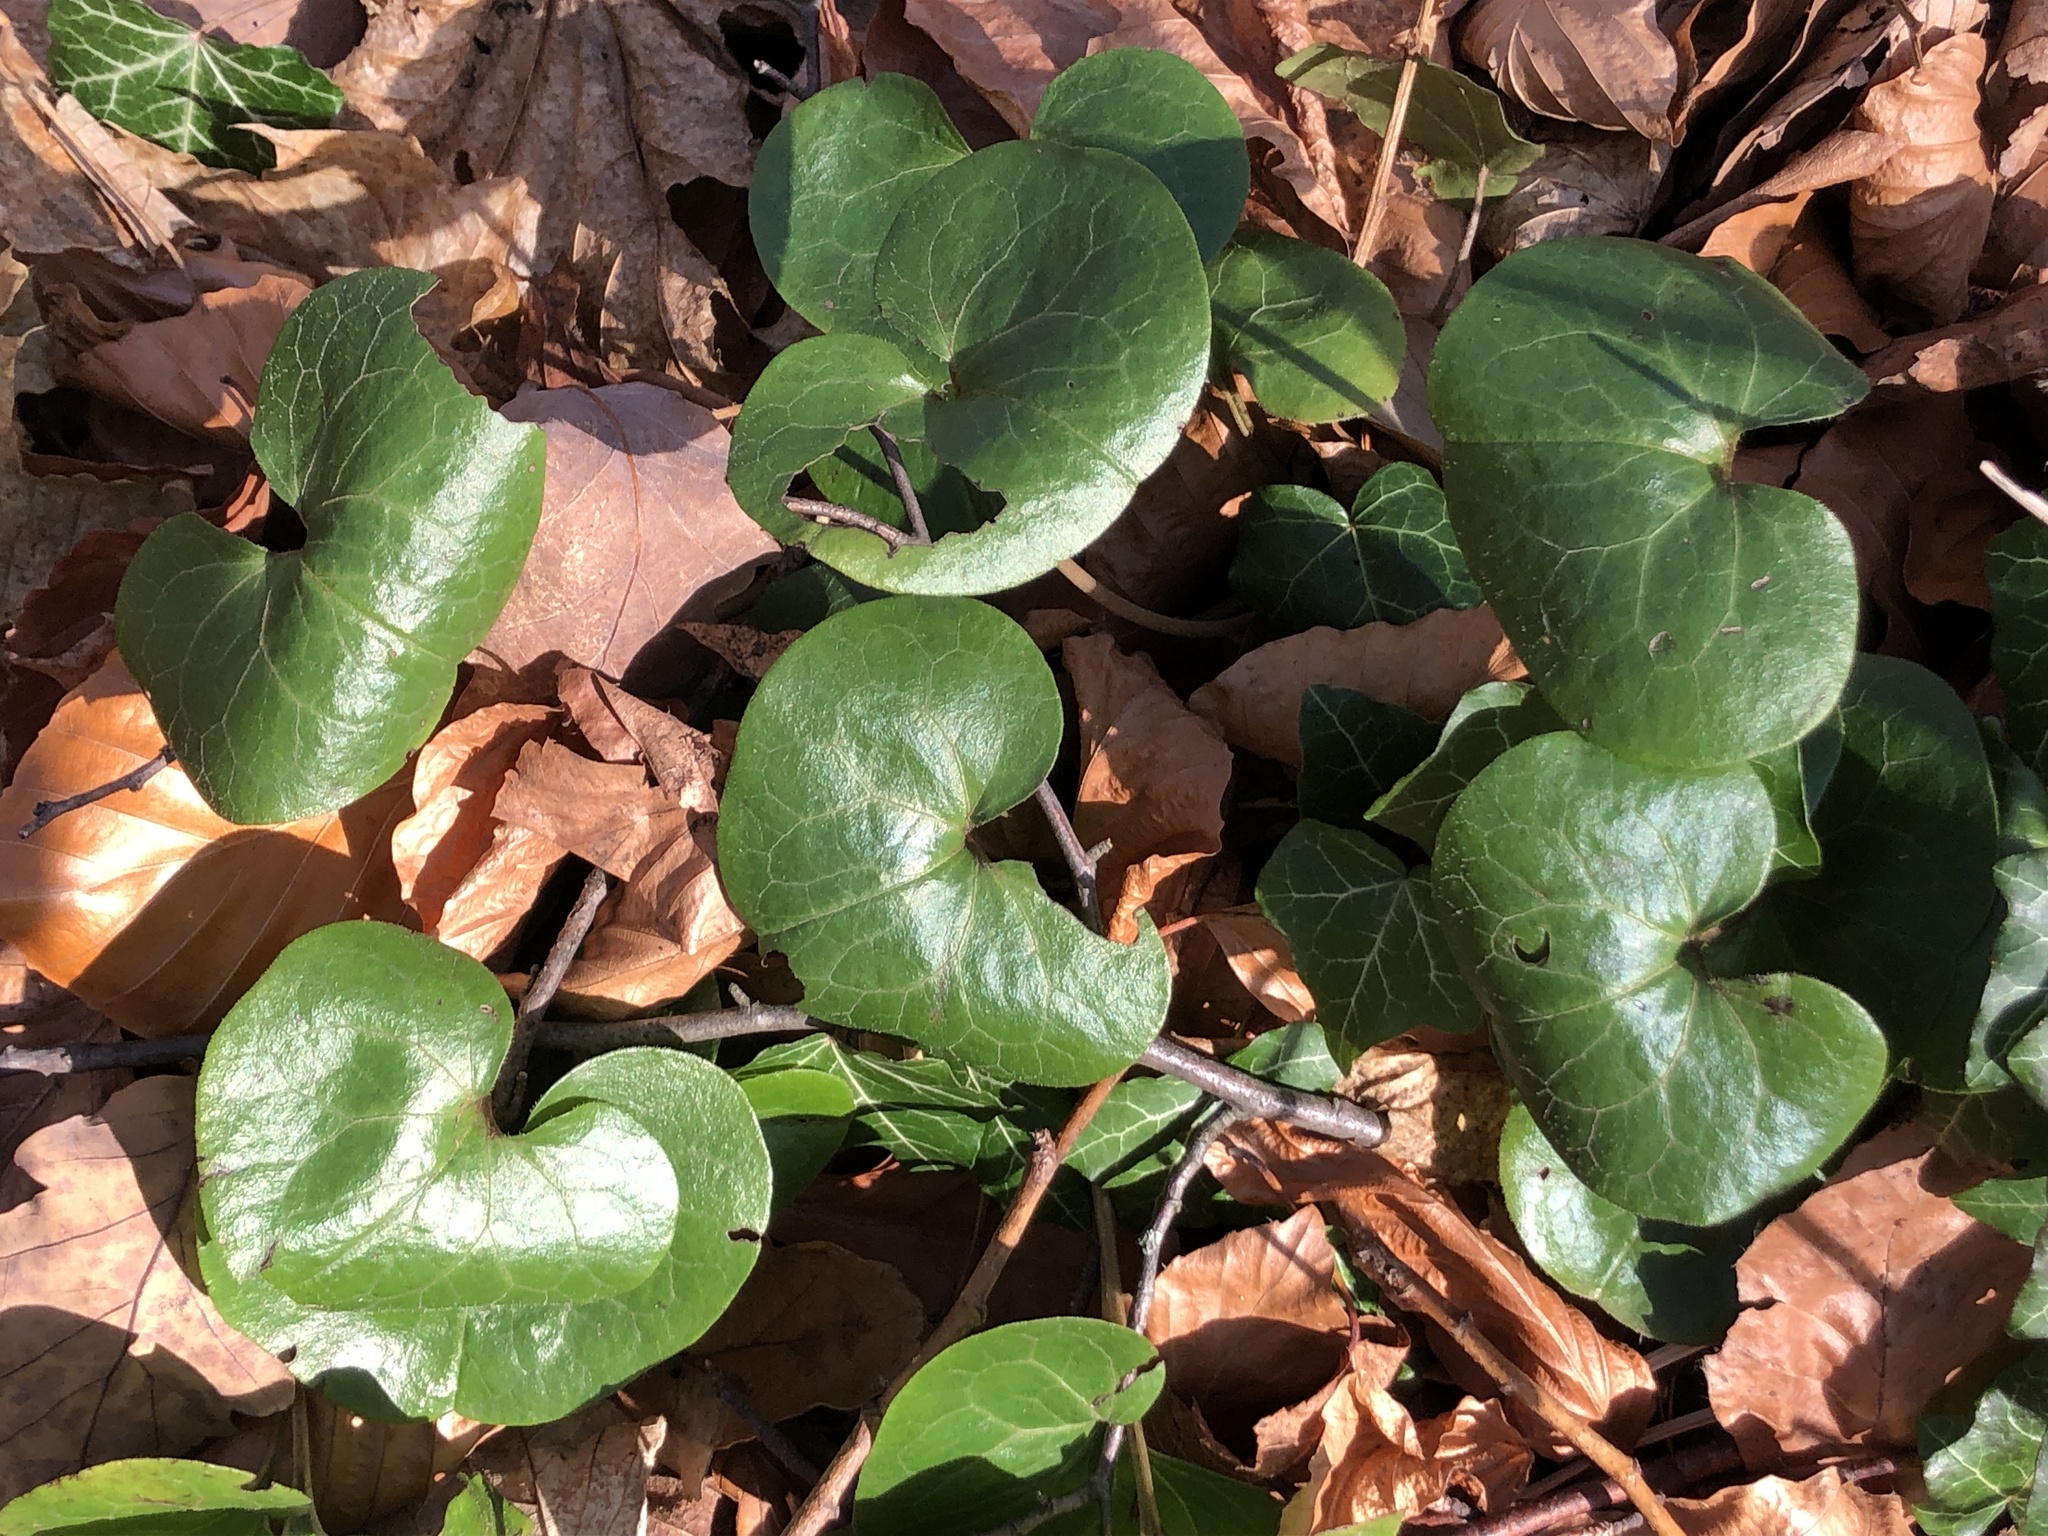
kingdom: Plantae
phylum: Tracheophyta
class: Magnoliopsida
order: Piperales
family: Aristolochiaceae
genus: Asarum
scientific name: Asarum europaeum
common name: Asarabacca
